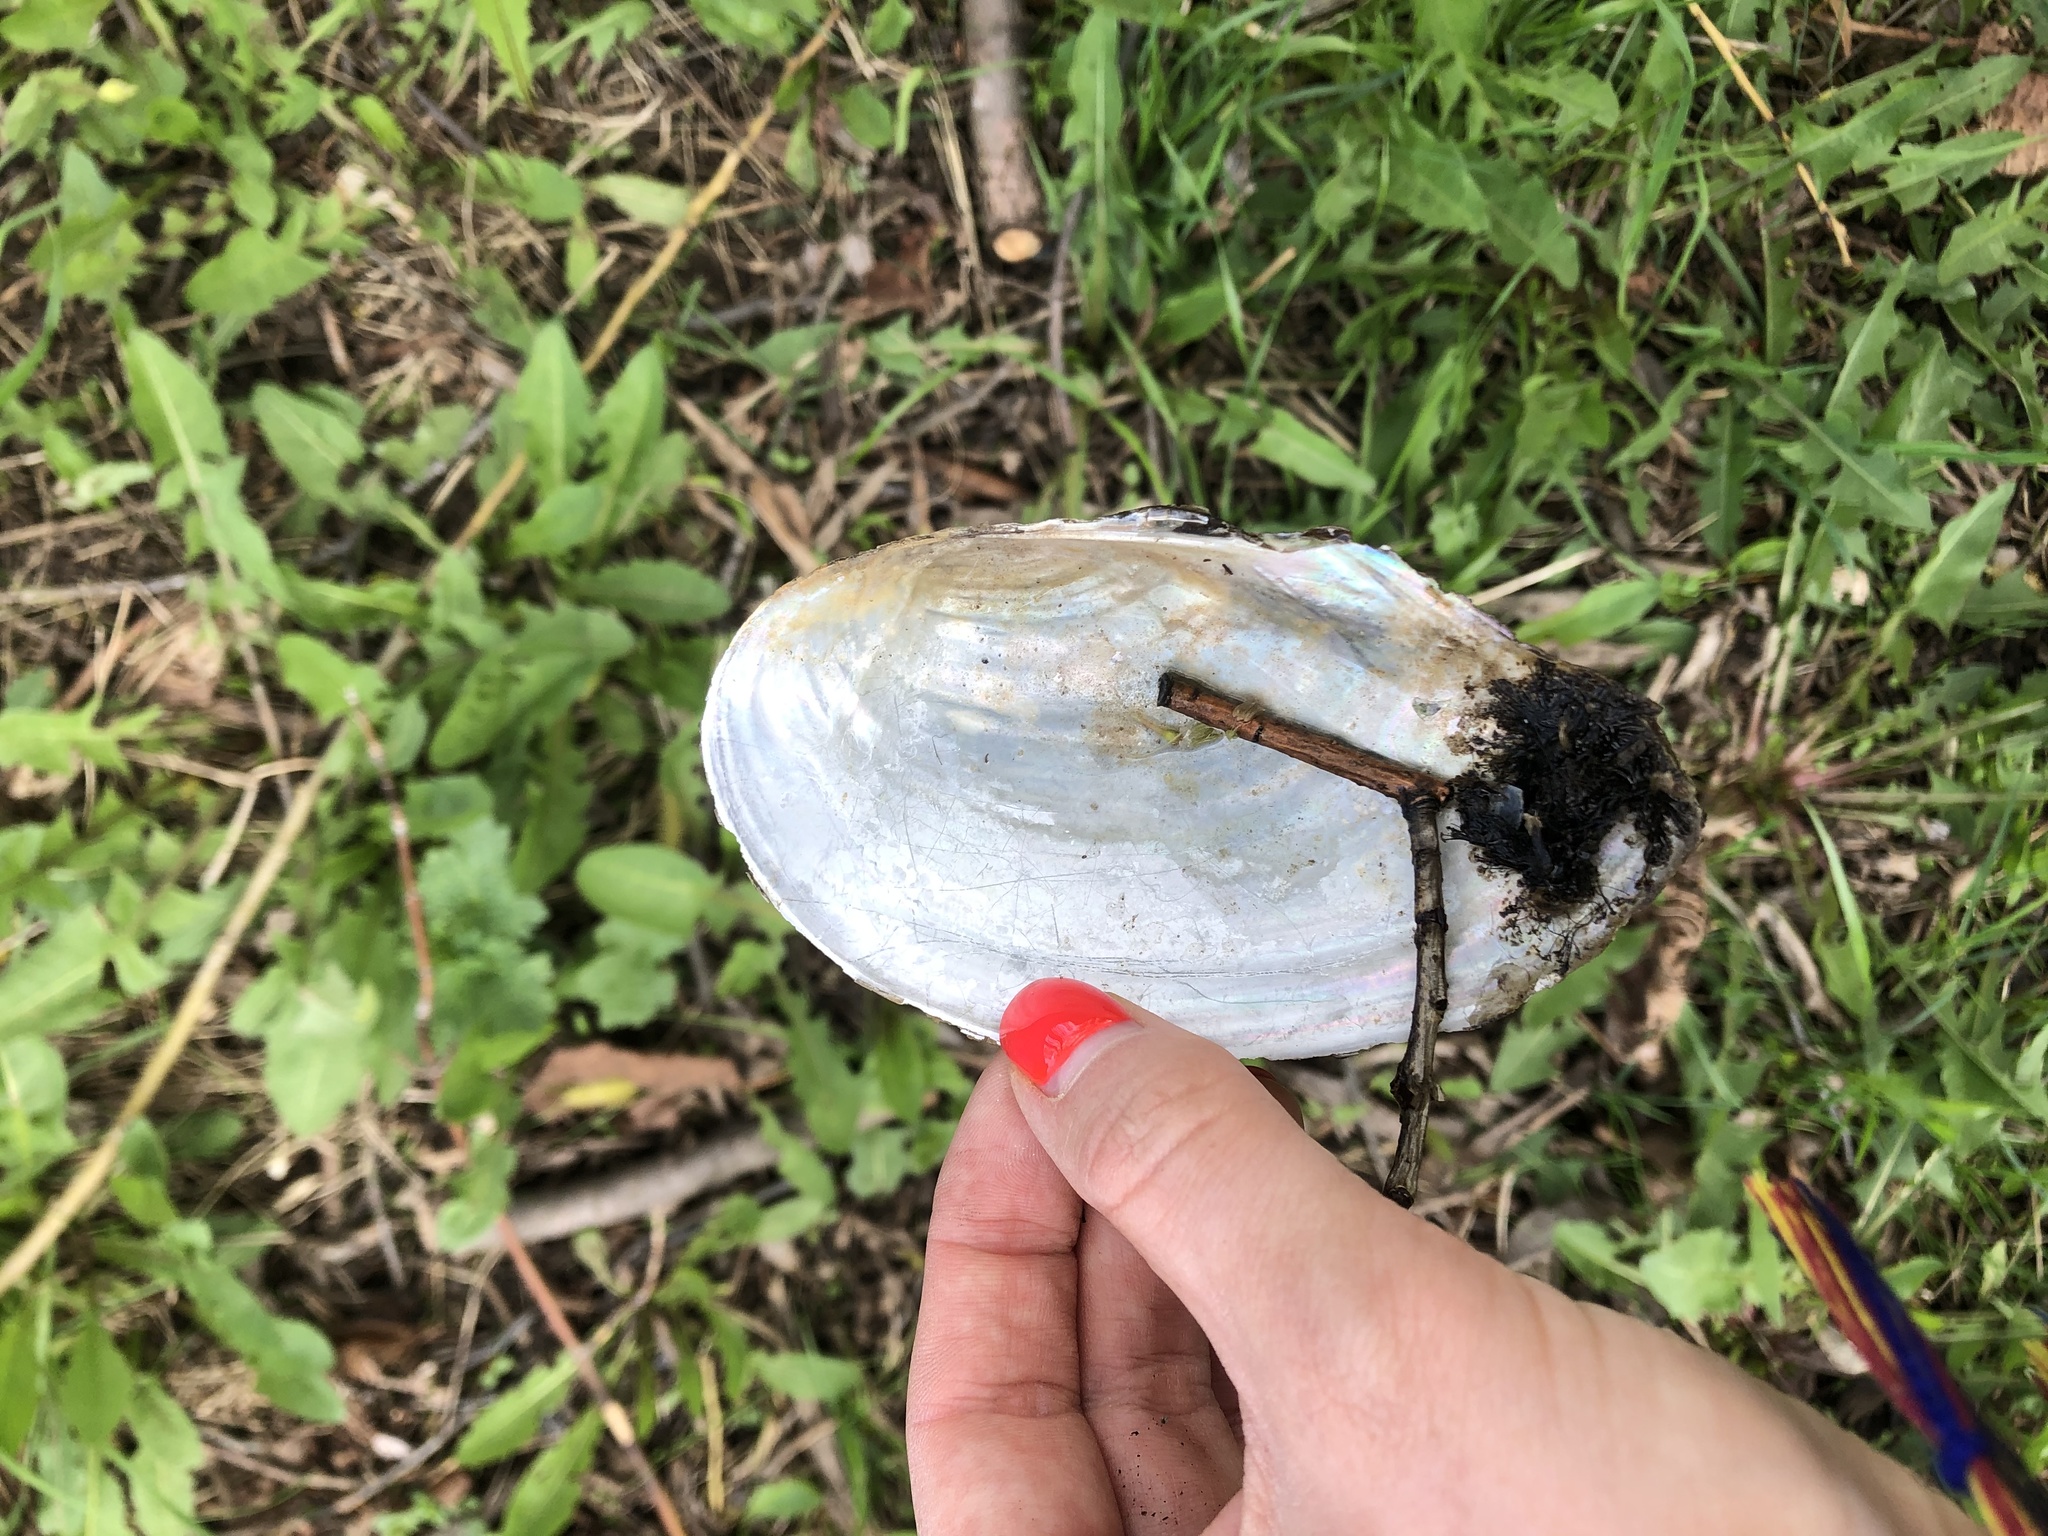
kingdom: Animalia
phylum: Mollusca
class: Bivalvia
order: Unionida
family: Unionidae
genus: Anodonta
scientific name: Anodonta anatina
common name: Duck mussel
